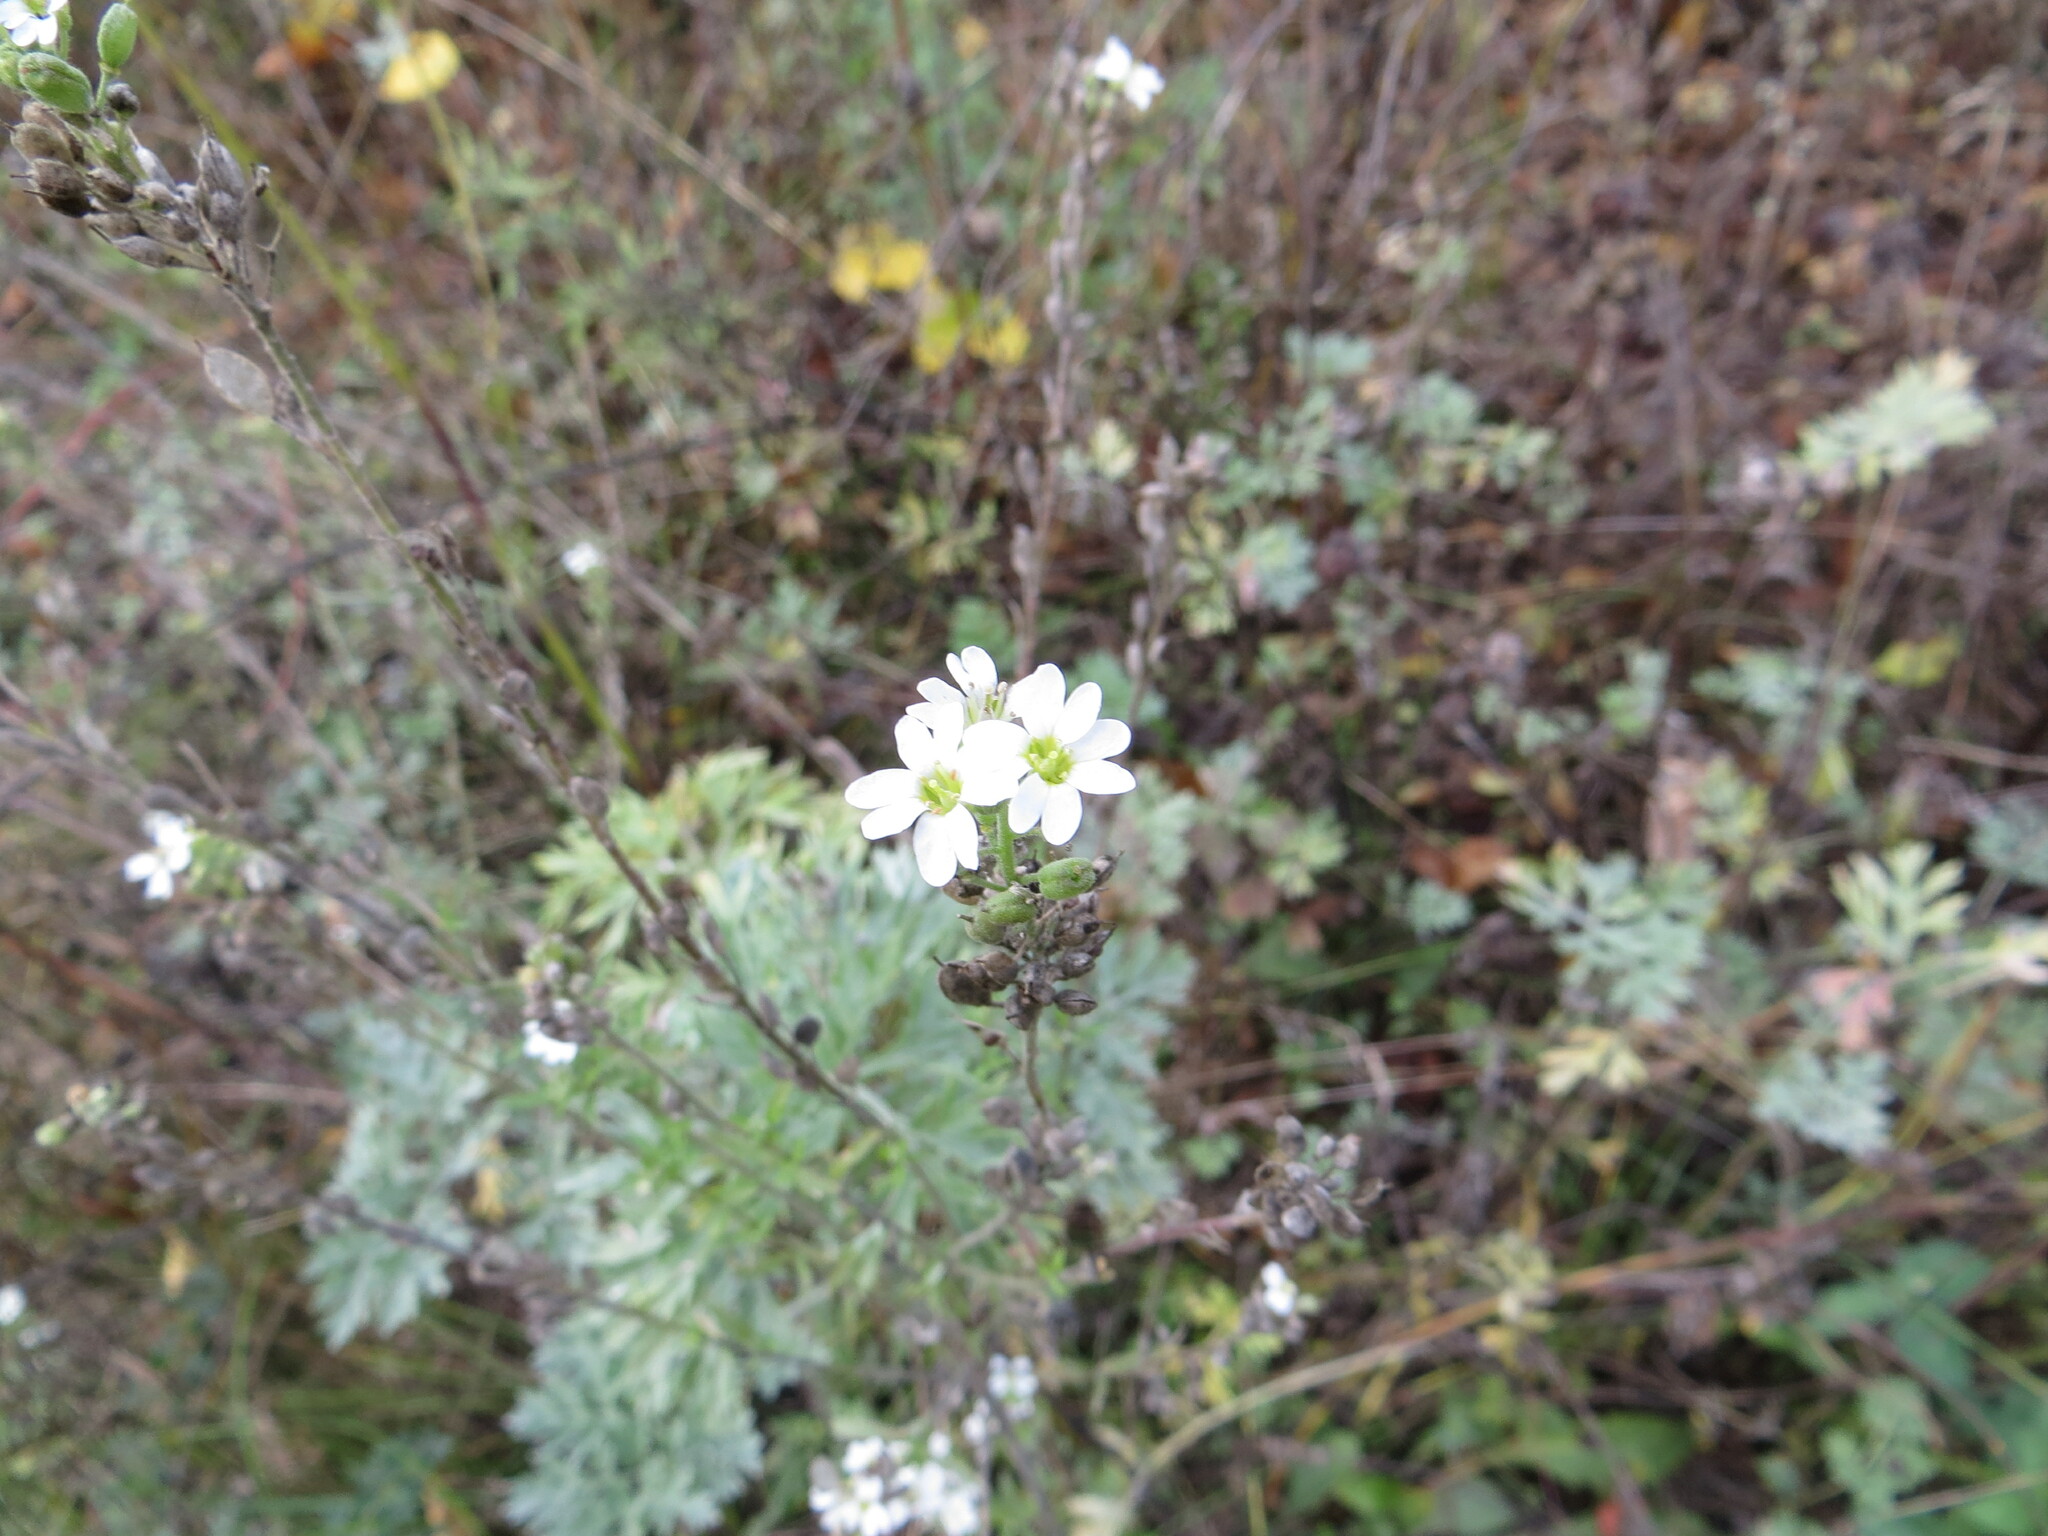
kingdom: Plantae
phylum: Tracheophyta
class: Magnoliopsida
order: Brassicales
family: Brassicaceae
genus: Berteroa
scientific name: Berteroa incana
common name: Hoary alison
